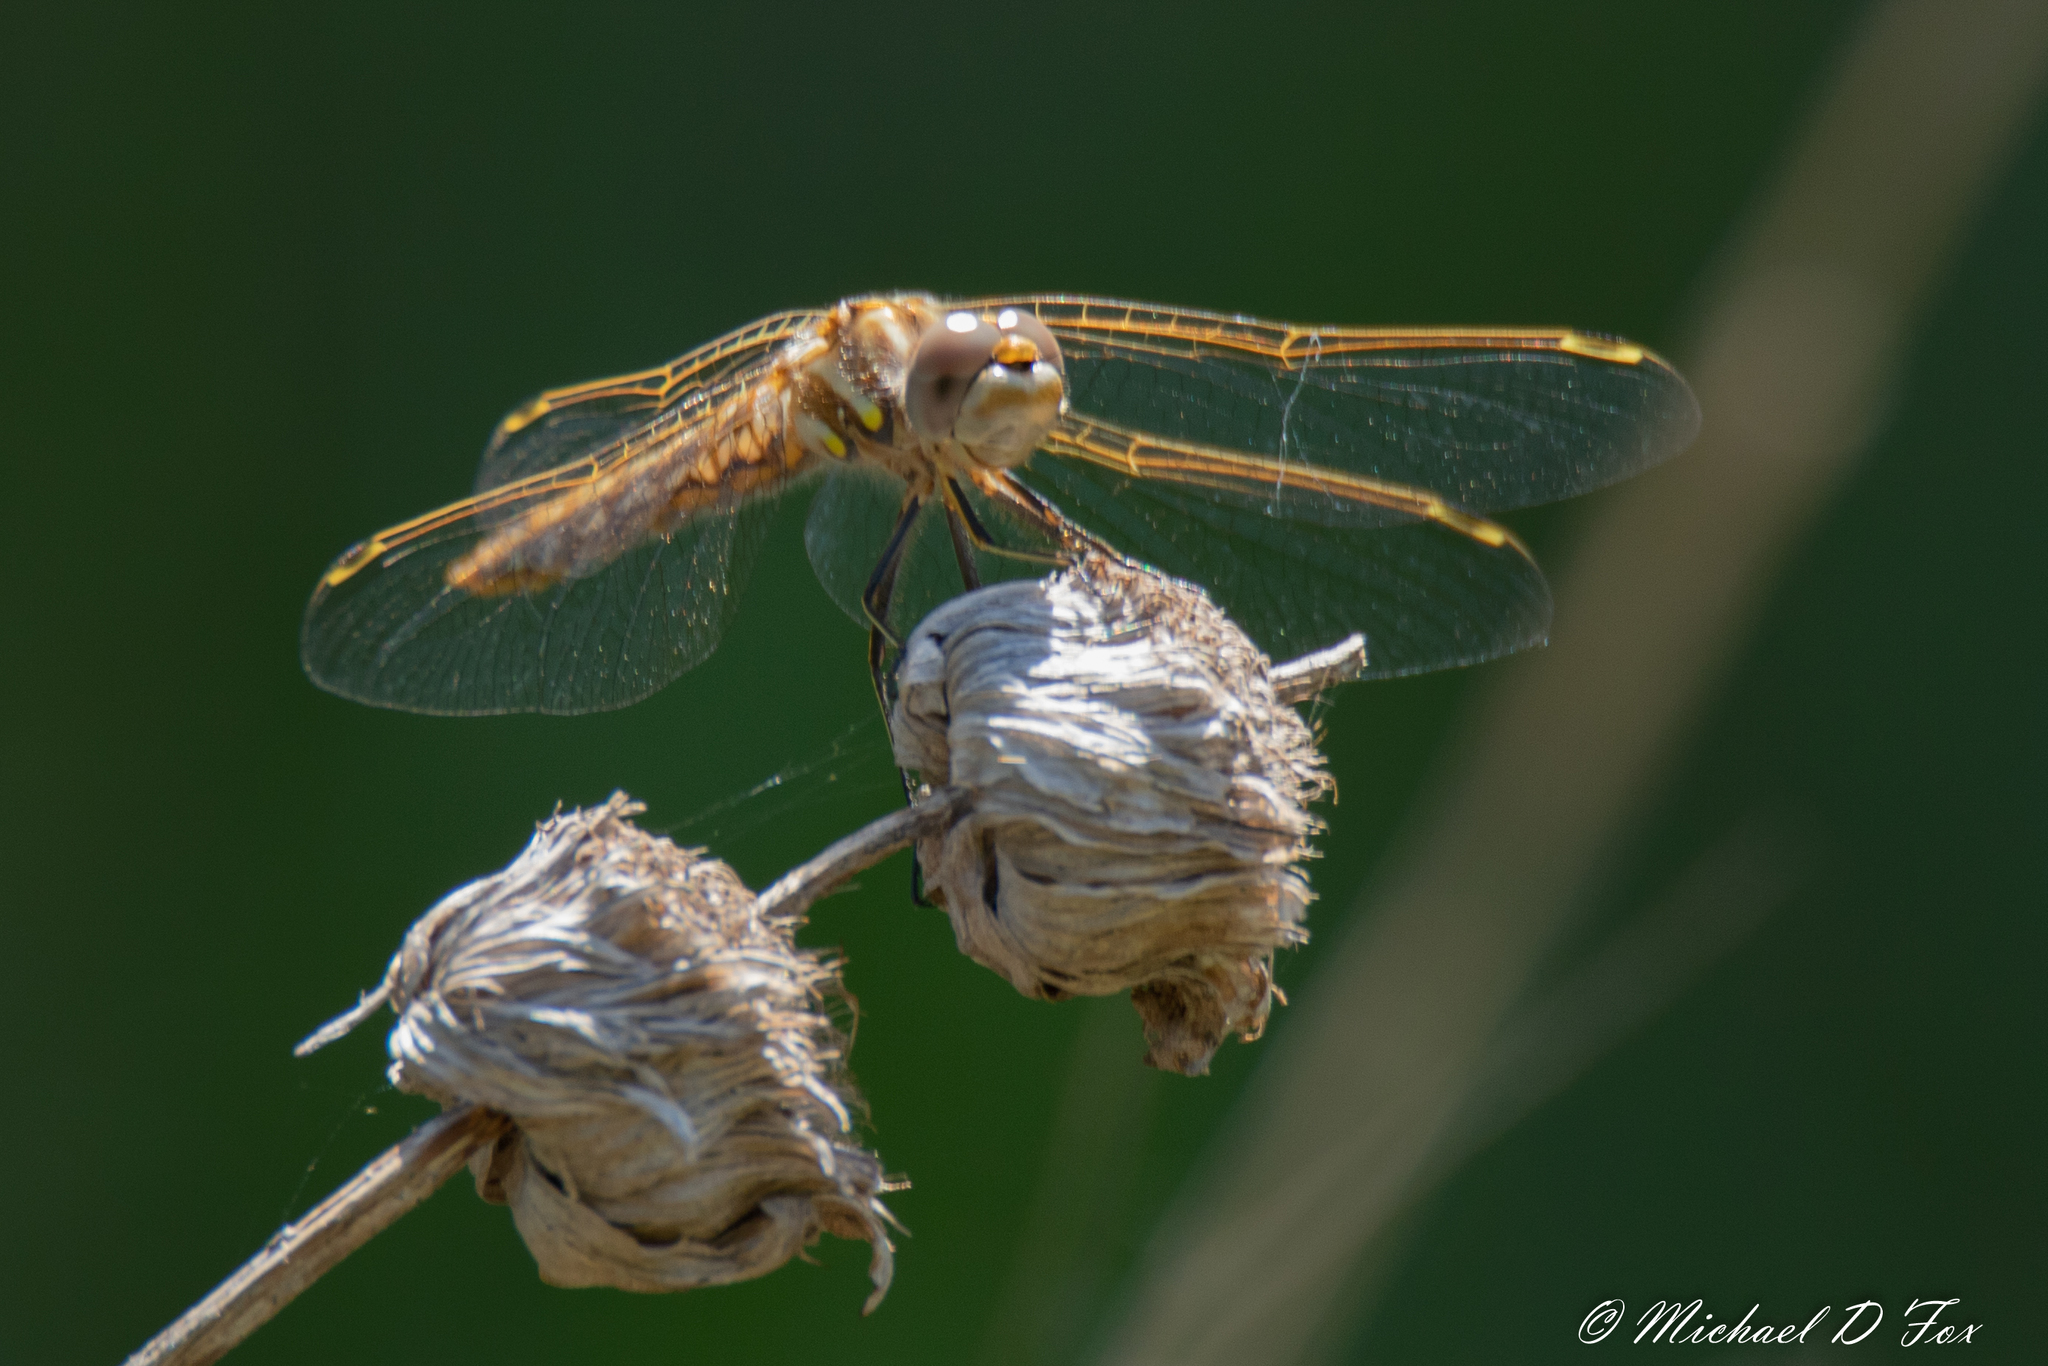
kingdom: Animalia
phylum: Arthropoda
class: Insecta
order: Odonata
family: Libellulidae
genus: Sympetrum
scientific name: Sympetrum corruptum
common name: Variegated meadowhawk
